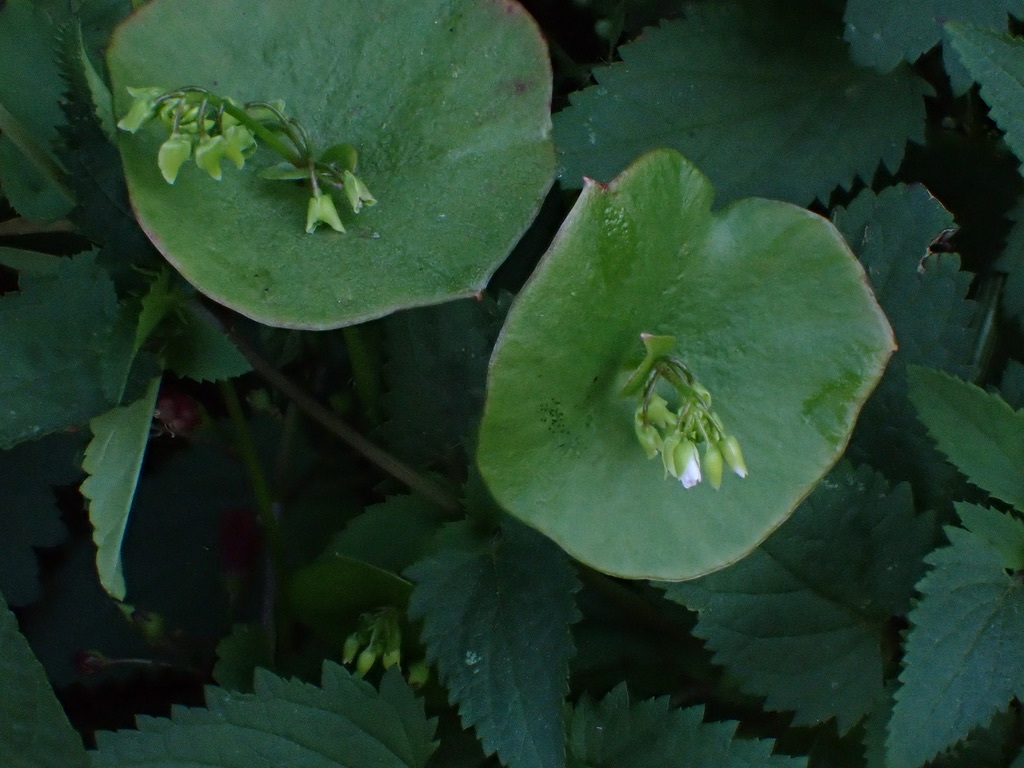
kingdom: Plantae
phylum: Tracheophyta
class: Magnoliopsida
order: Caryophyllales
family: Montiaceae
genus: Claytonia
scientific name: Claytonia perfoliata
